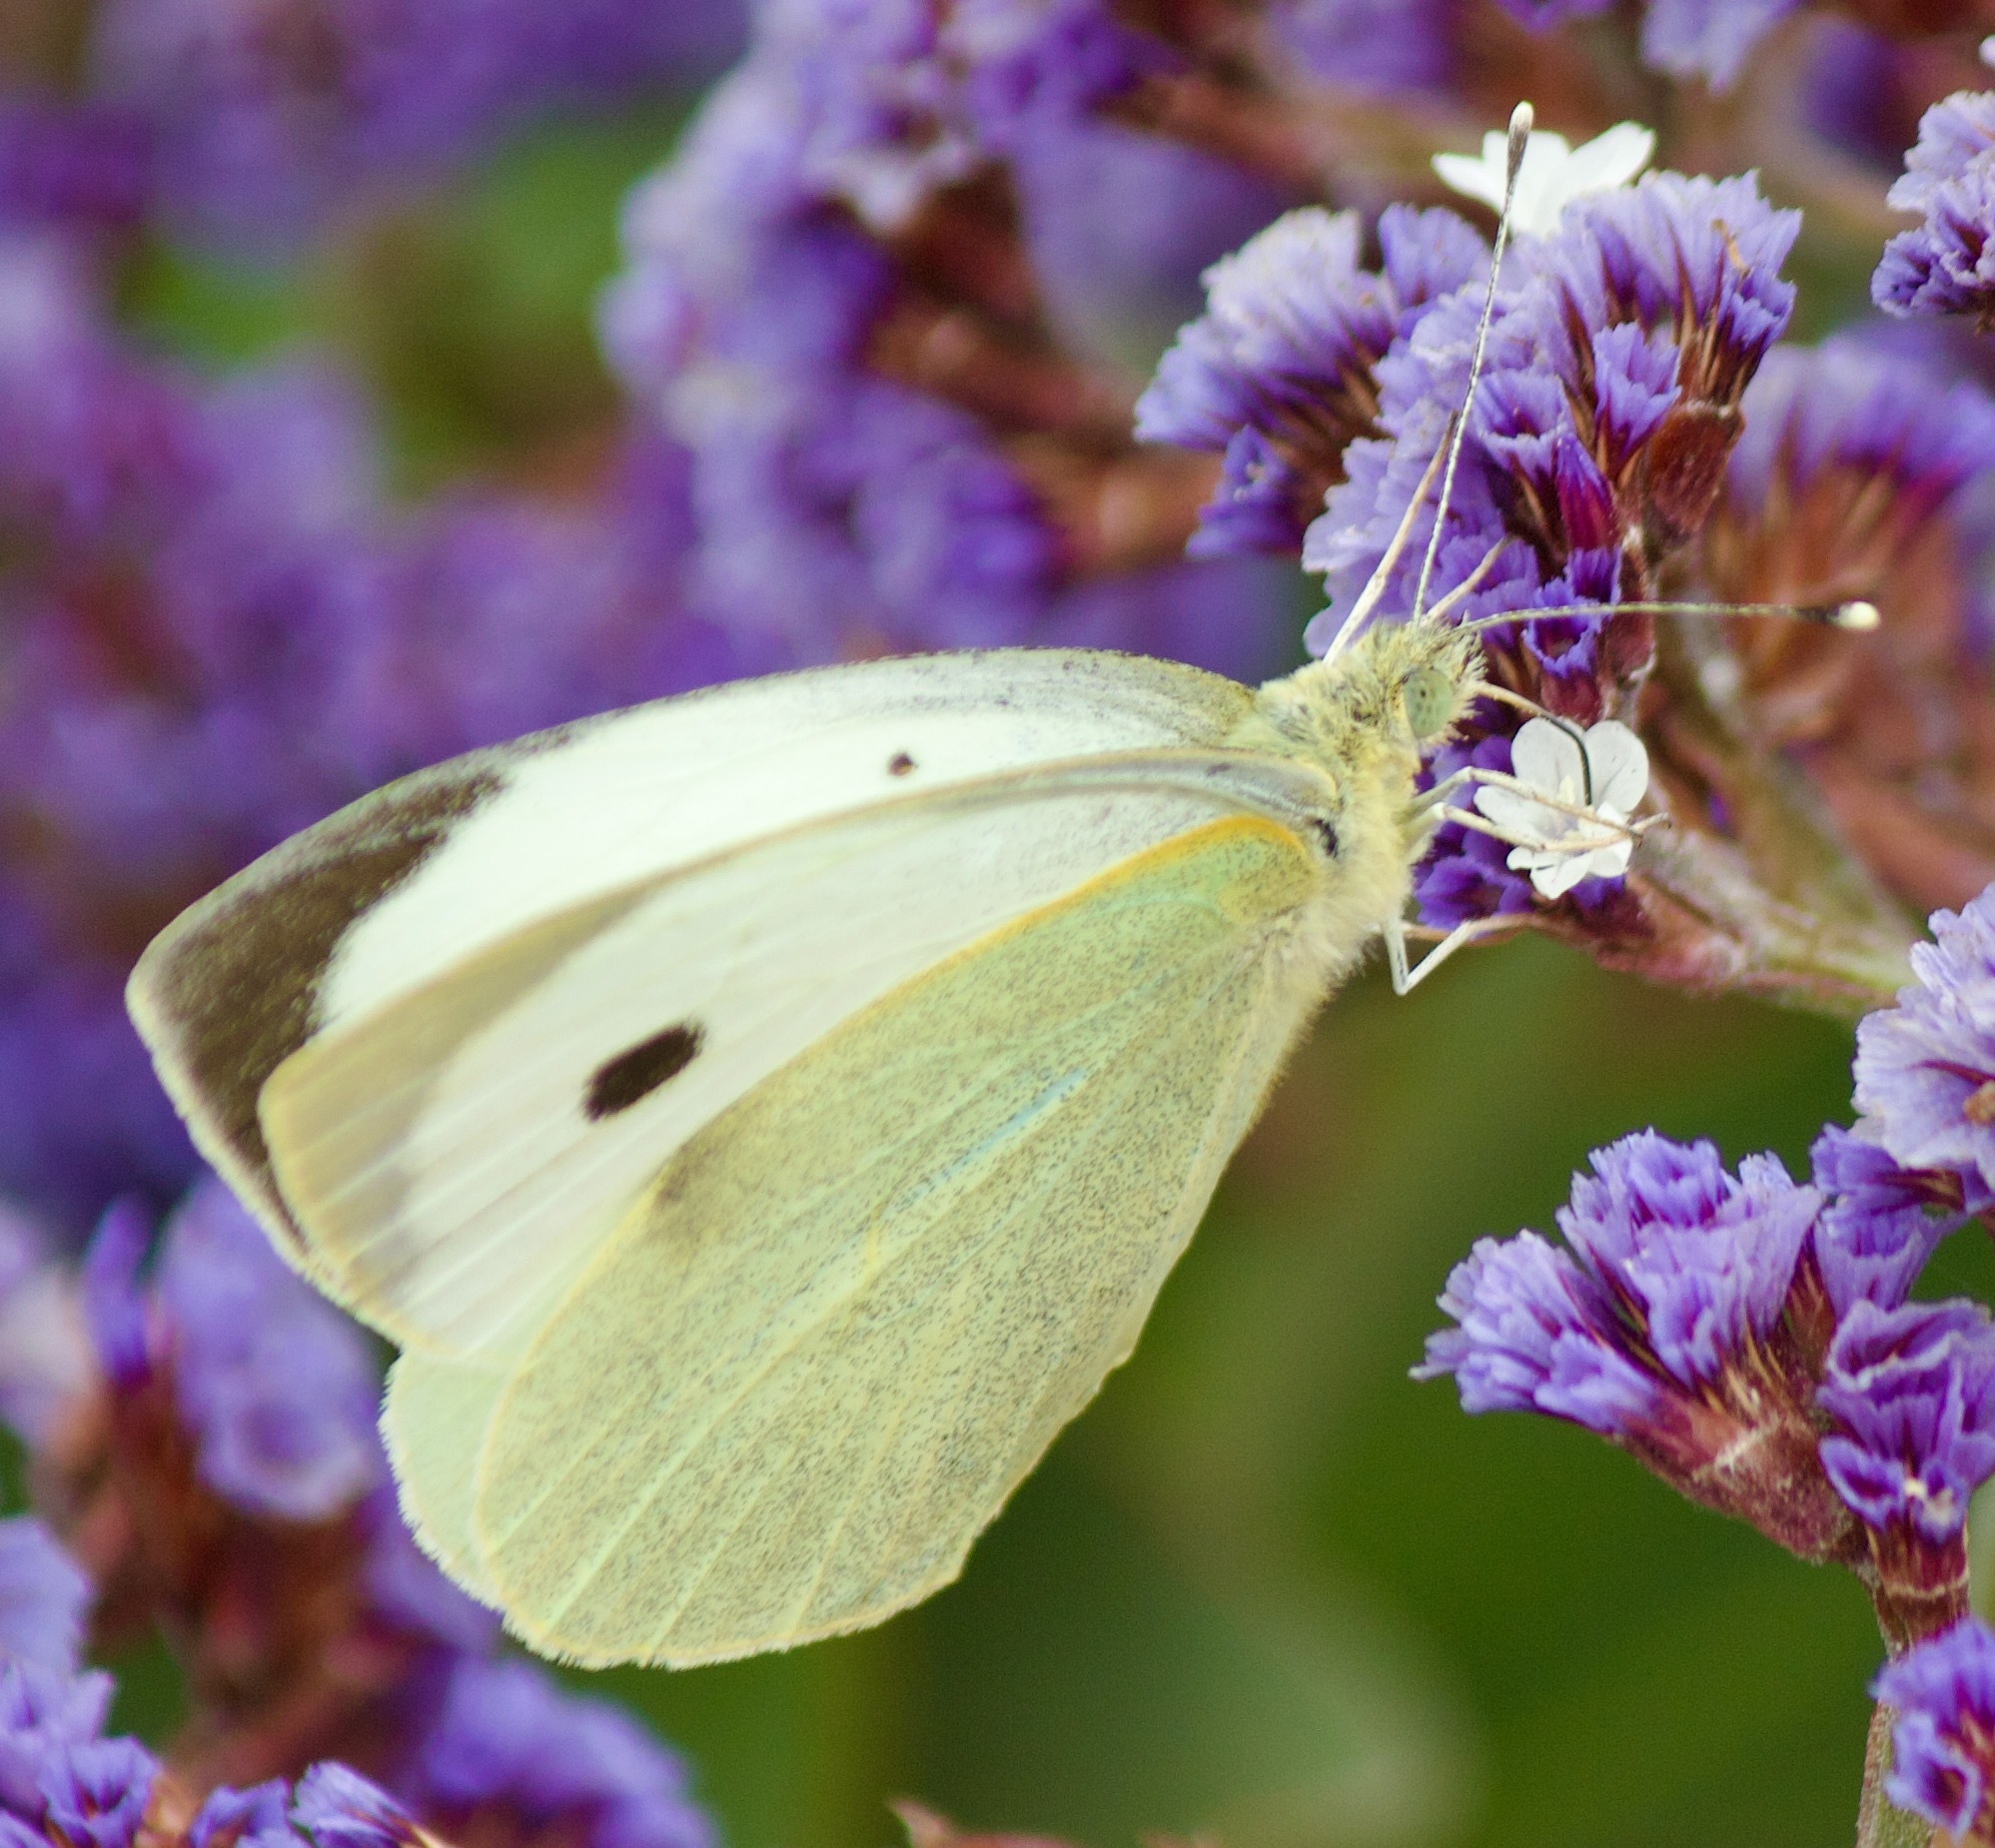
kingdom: Animalia
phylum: Arthropoda
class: Insecta
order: Lepidoptera
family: Pieridae
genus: Pieris
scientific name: Pieris brassicae
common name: Large white
